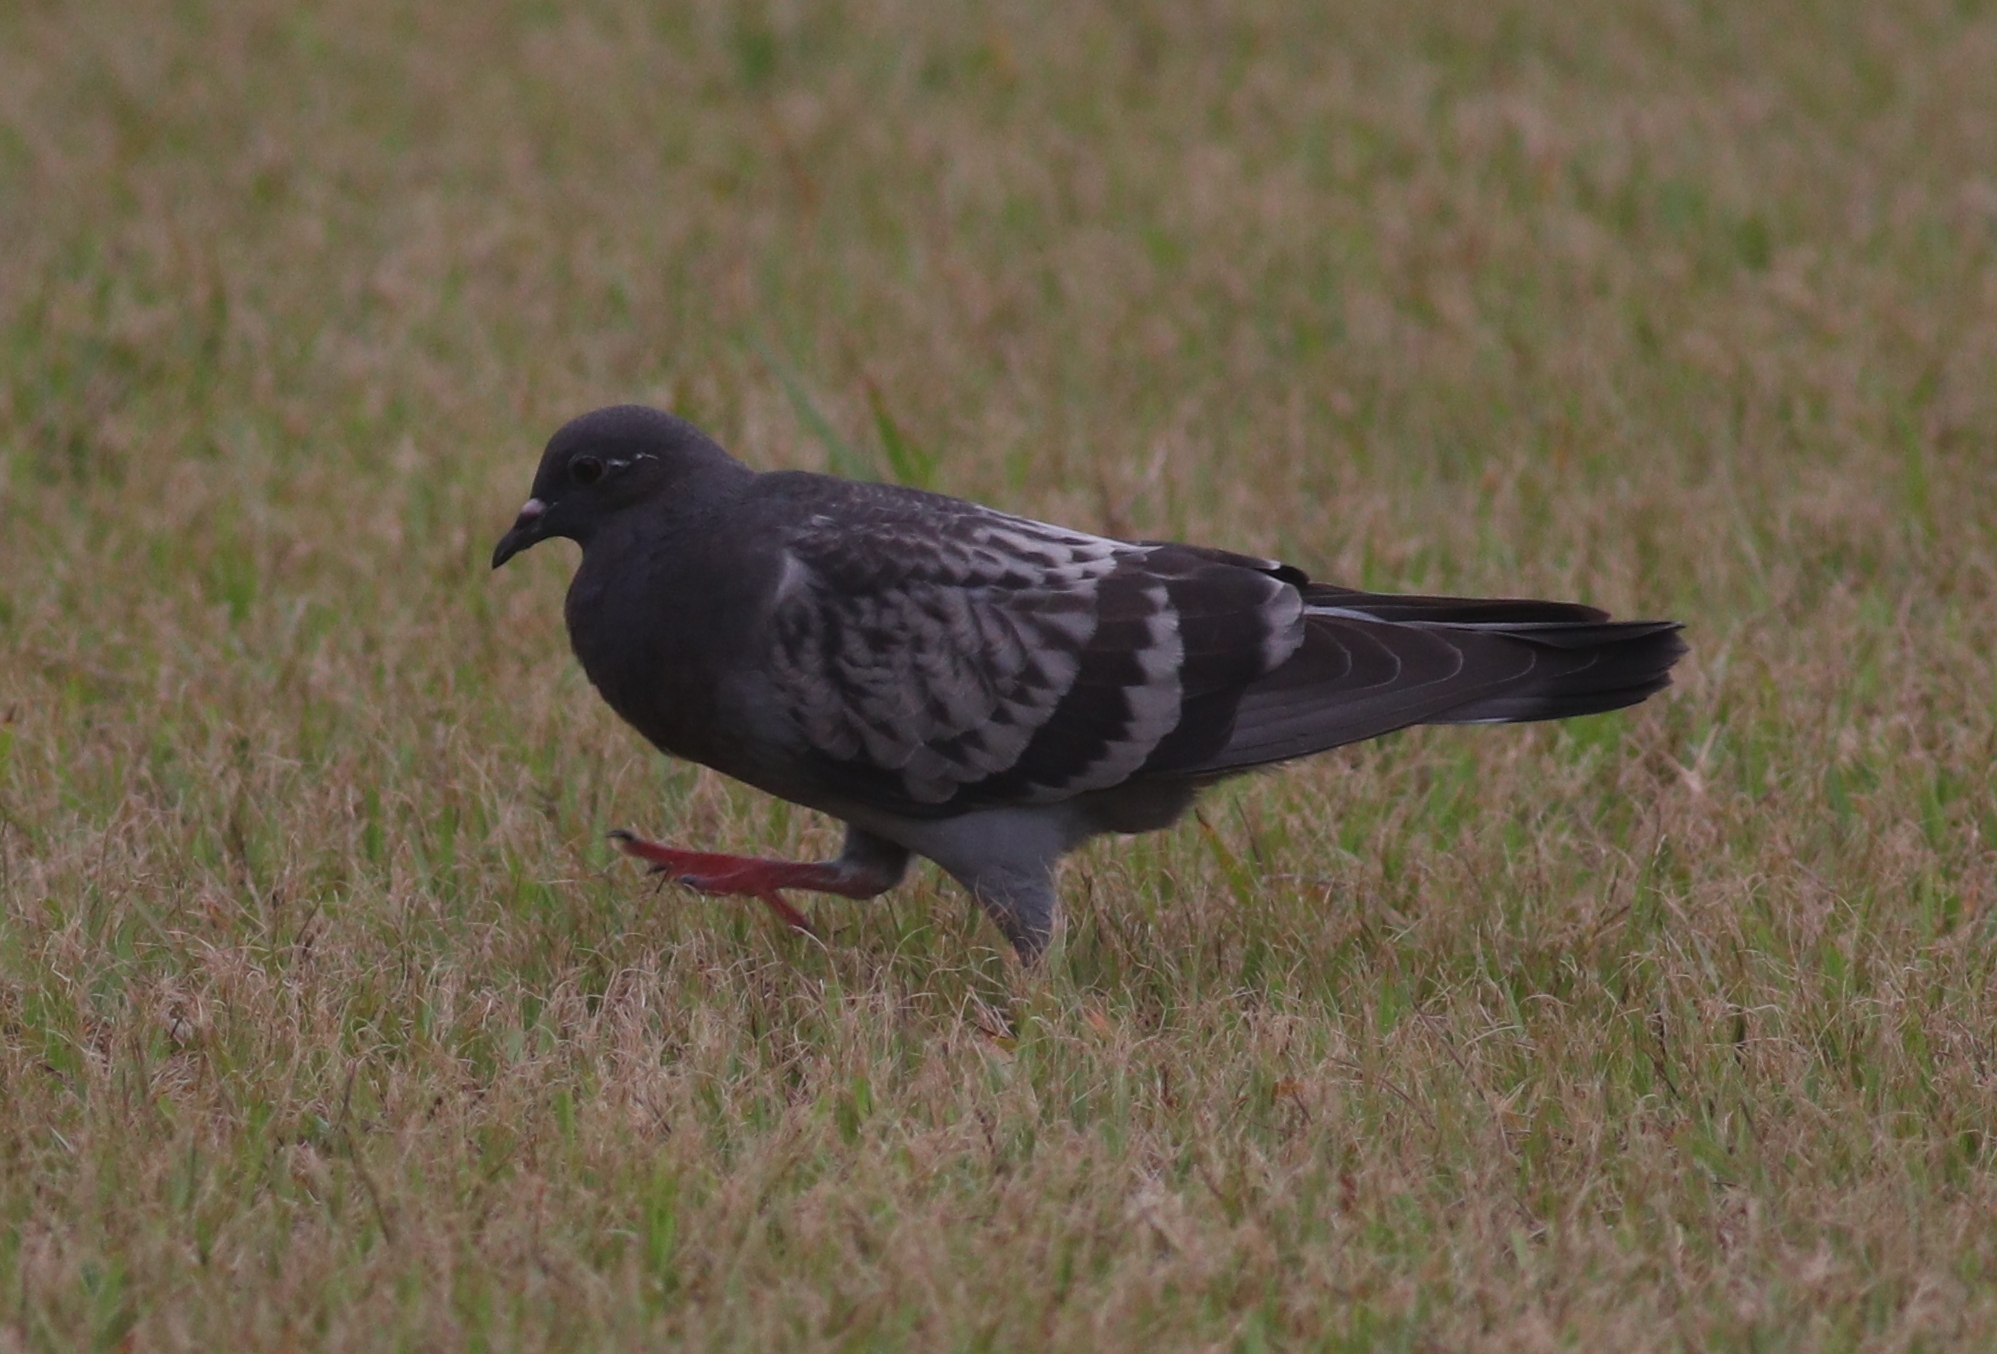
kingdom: Animalia
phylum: Chordata
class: Aves
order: Columbiformes
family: Columbidae
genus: Columba
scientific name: Columba livia
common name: Rock pigeon
